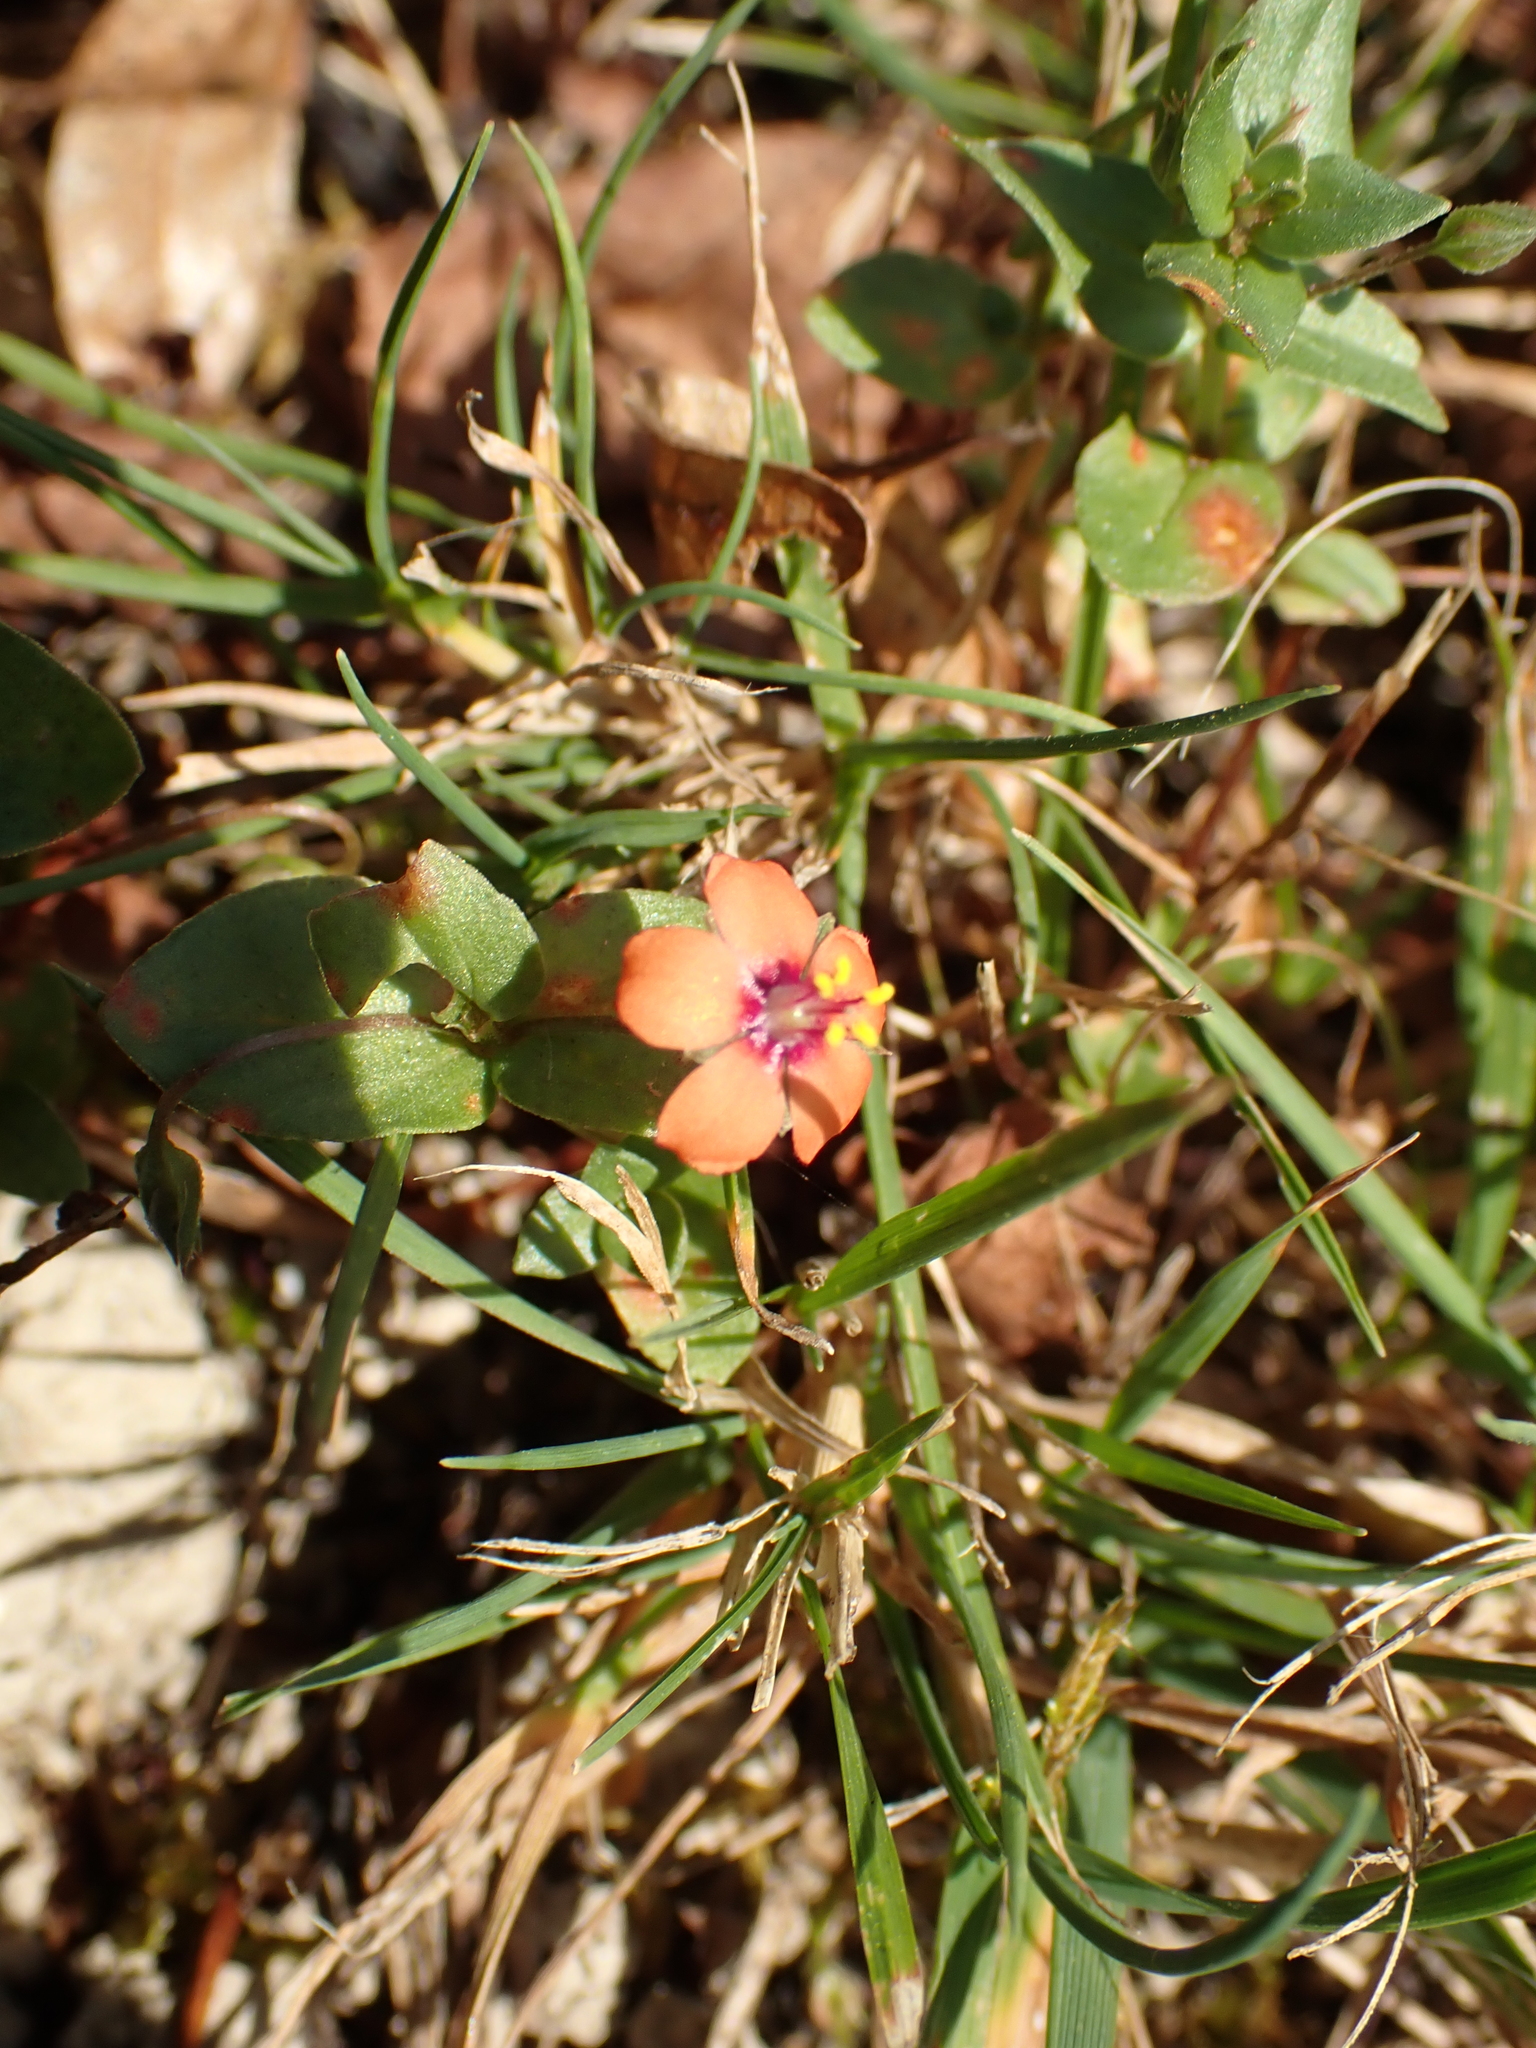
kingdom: Plantae
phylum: Tracheophyta
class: Magnoliopsida
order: Ericales
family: Primulaceae
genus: Lysimachia
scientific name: Lysimachia arvensis
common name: Scarlet pimpernel
